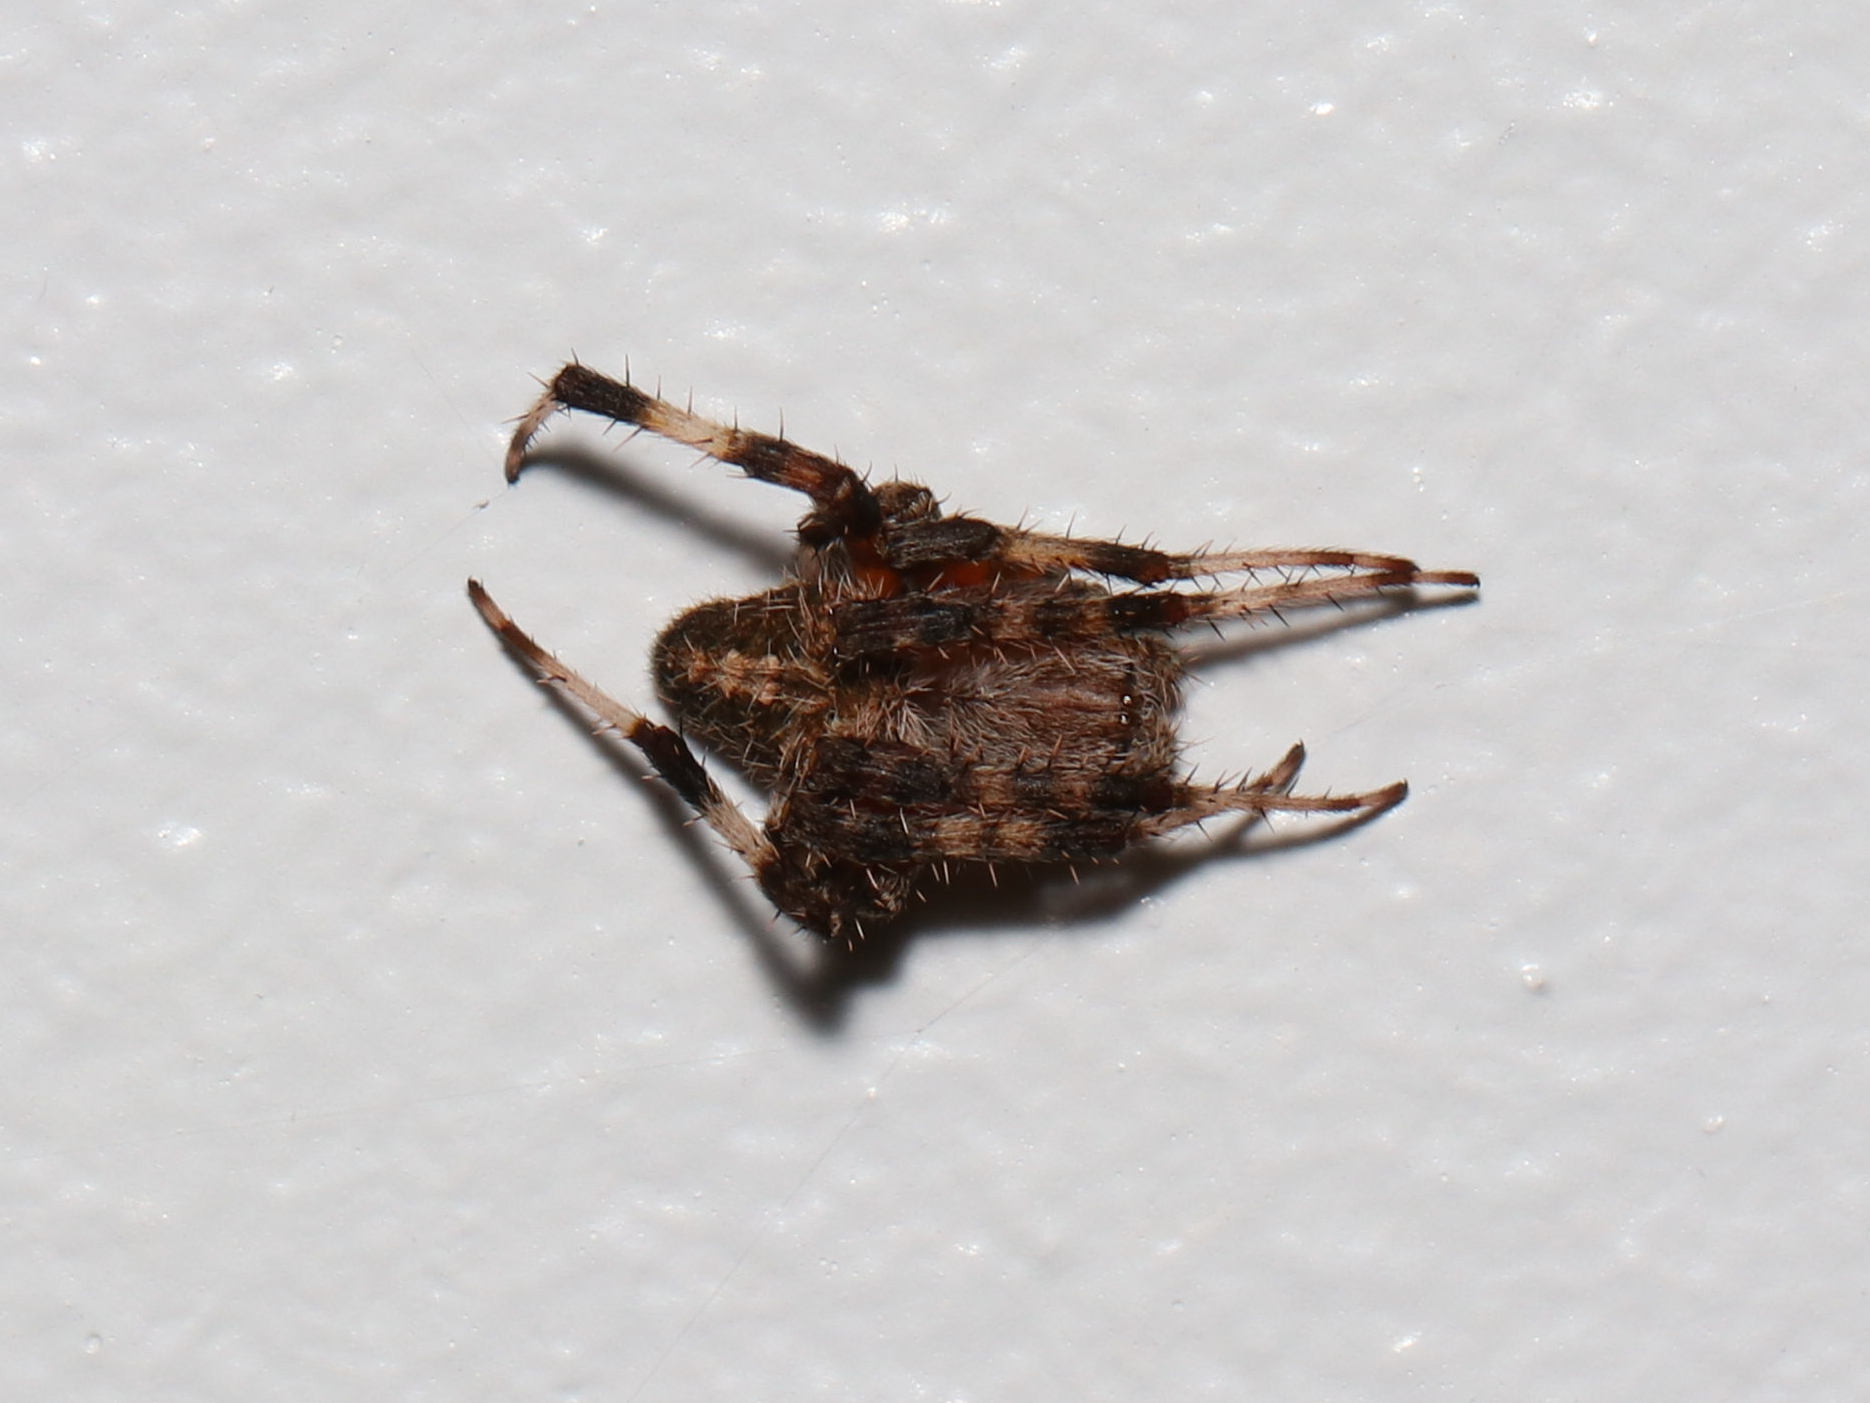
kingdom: Animalia
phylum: Arthropoda
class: Arachnida
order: Araneae
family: Araneidae
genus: Neoscona
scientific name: Neoscona crucifera
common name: Spotted orbweaver
